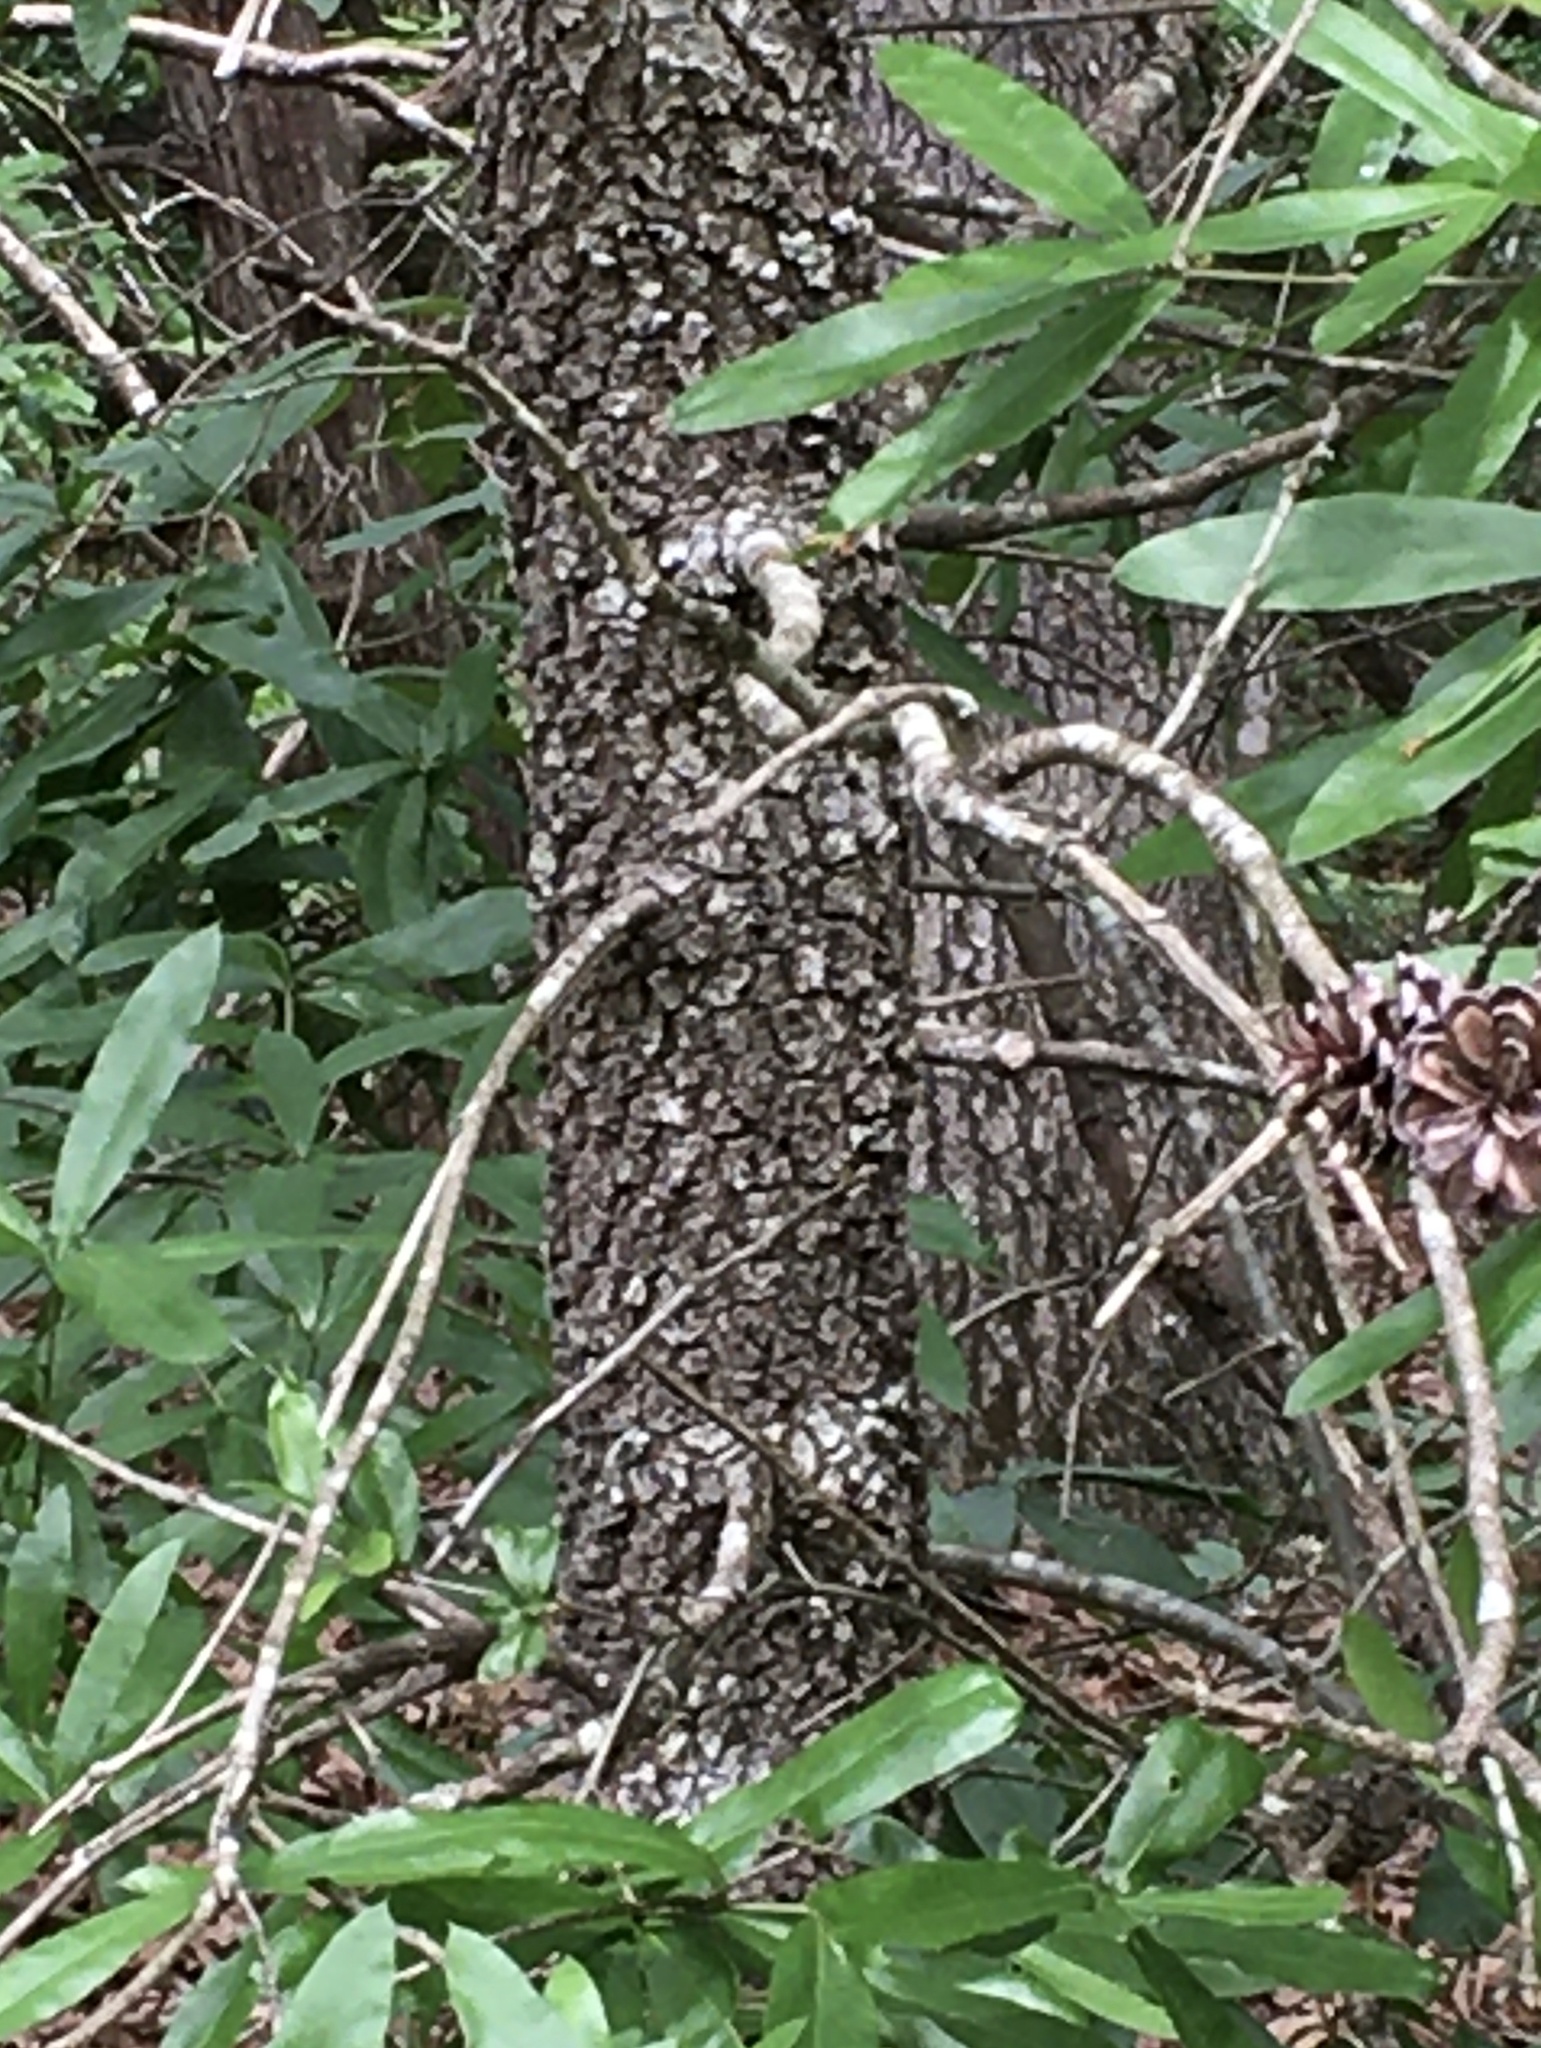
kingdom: Plantae
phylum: Tracheophyta
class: Magnoliopsida
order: Fagales
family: Fagaceae
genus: Quercus
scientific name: Quercus marilandica
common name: Blackjack oak
